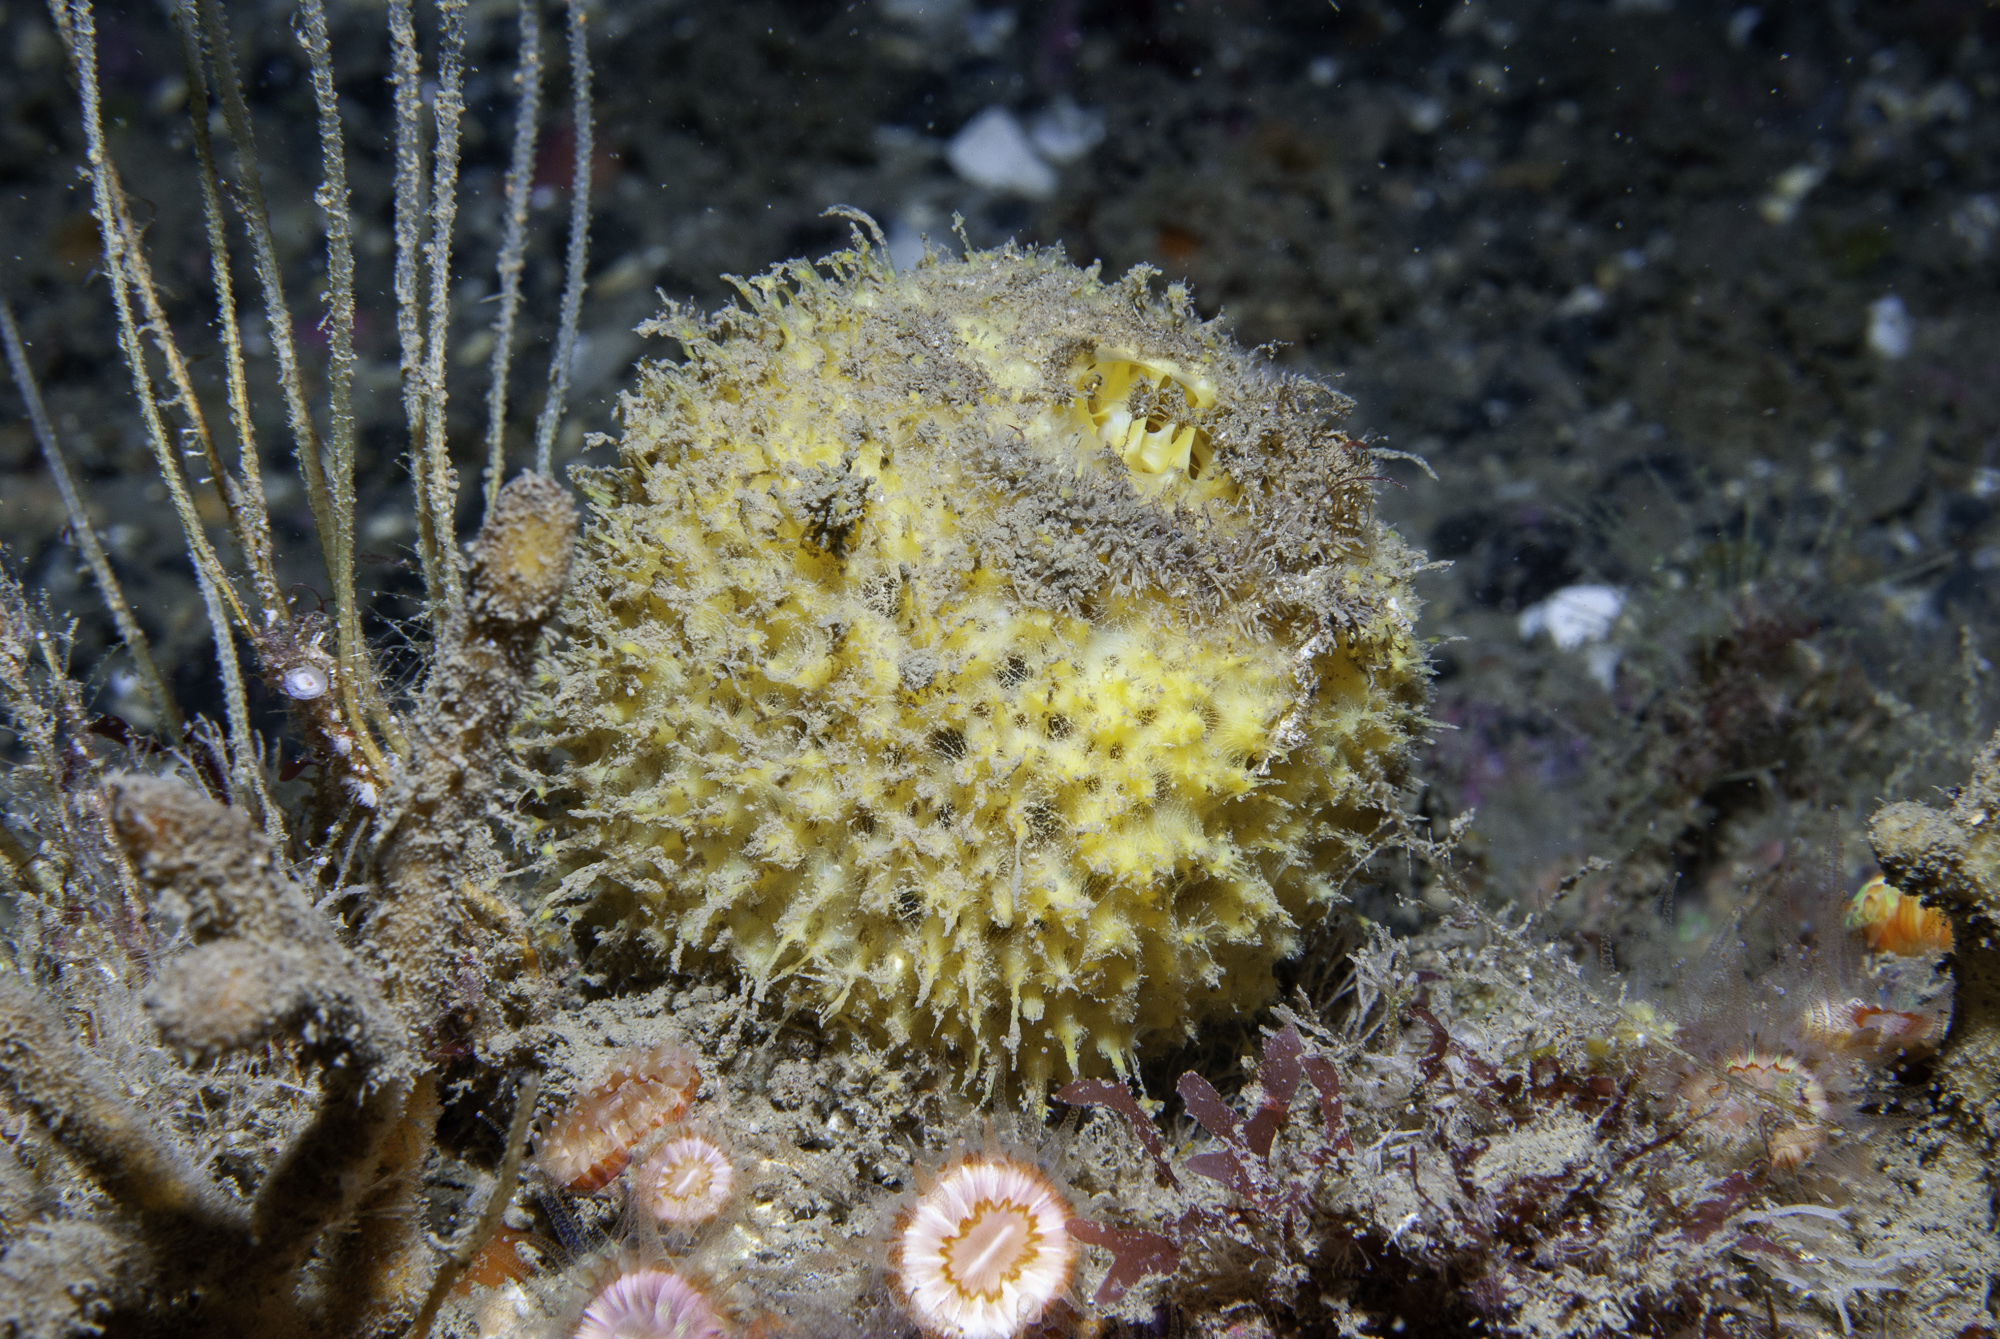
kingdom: Animalia
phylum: Porifera
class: Demospongiae
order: Tethyida
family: Tethyidae
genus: Tethya
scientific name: Tethya citrina
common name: Sea lemon
